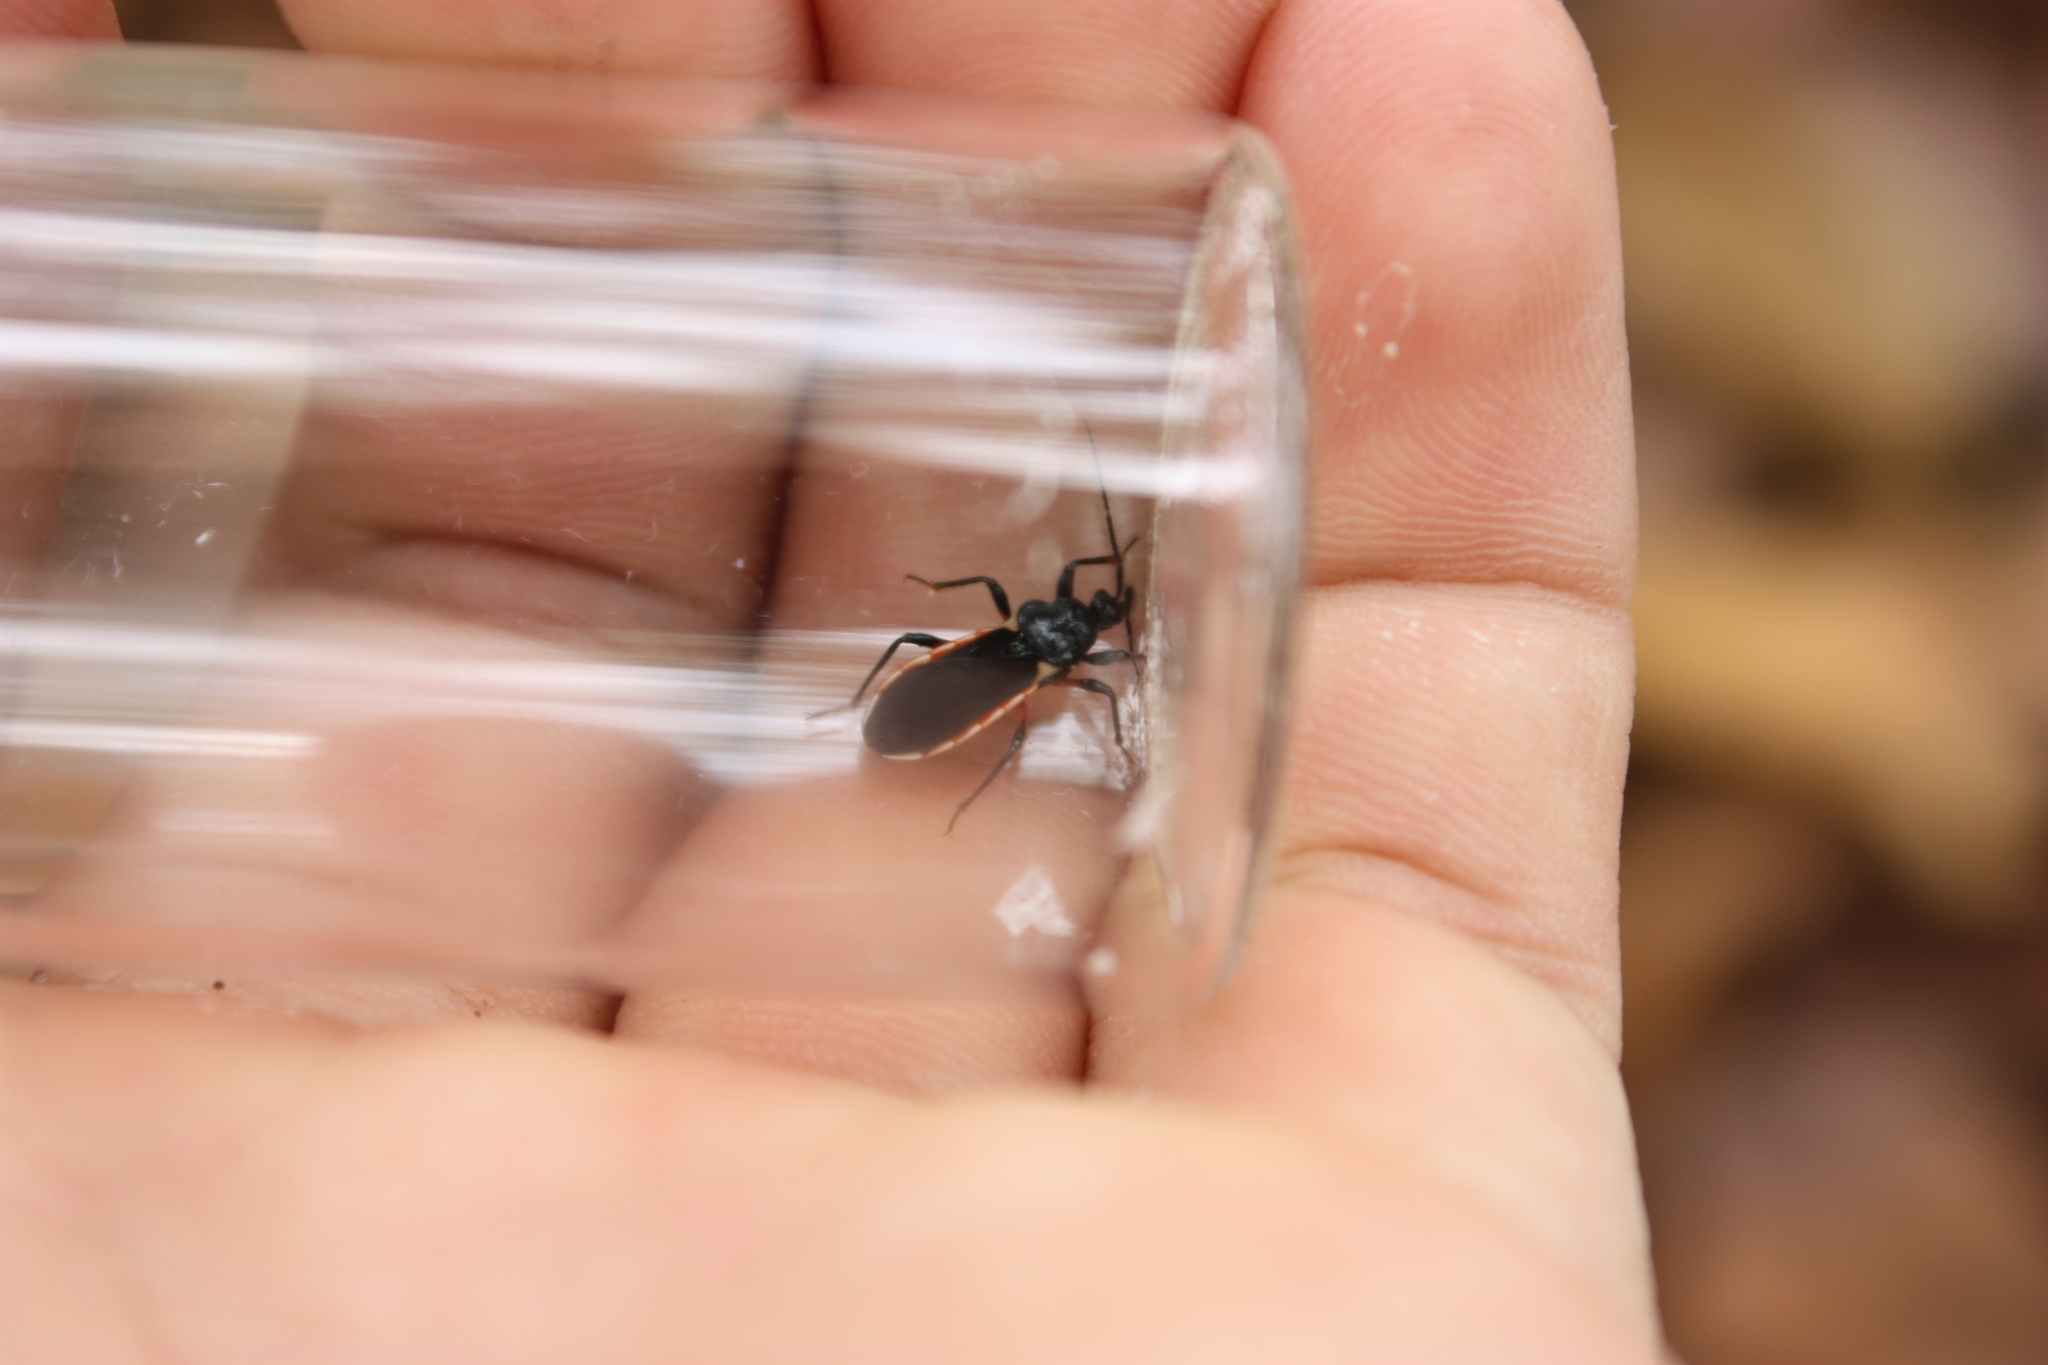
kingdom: Animalia
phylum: Arthropoda
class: Insecta
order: Hemiptera
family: Reduviidae
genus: Ectrychotes
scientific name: Ectrychotes andreae
